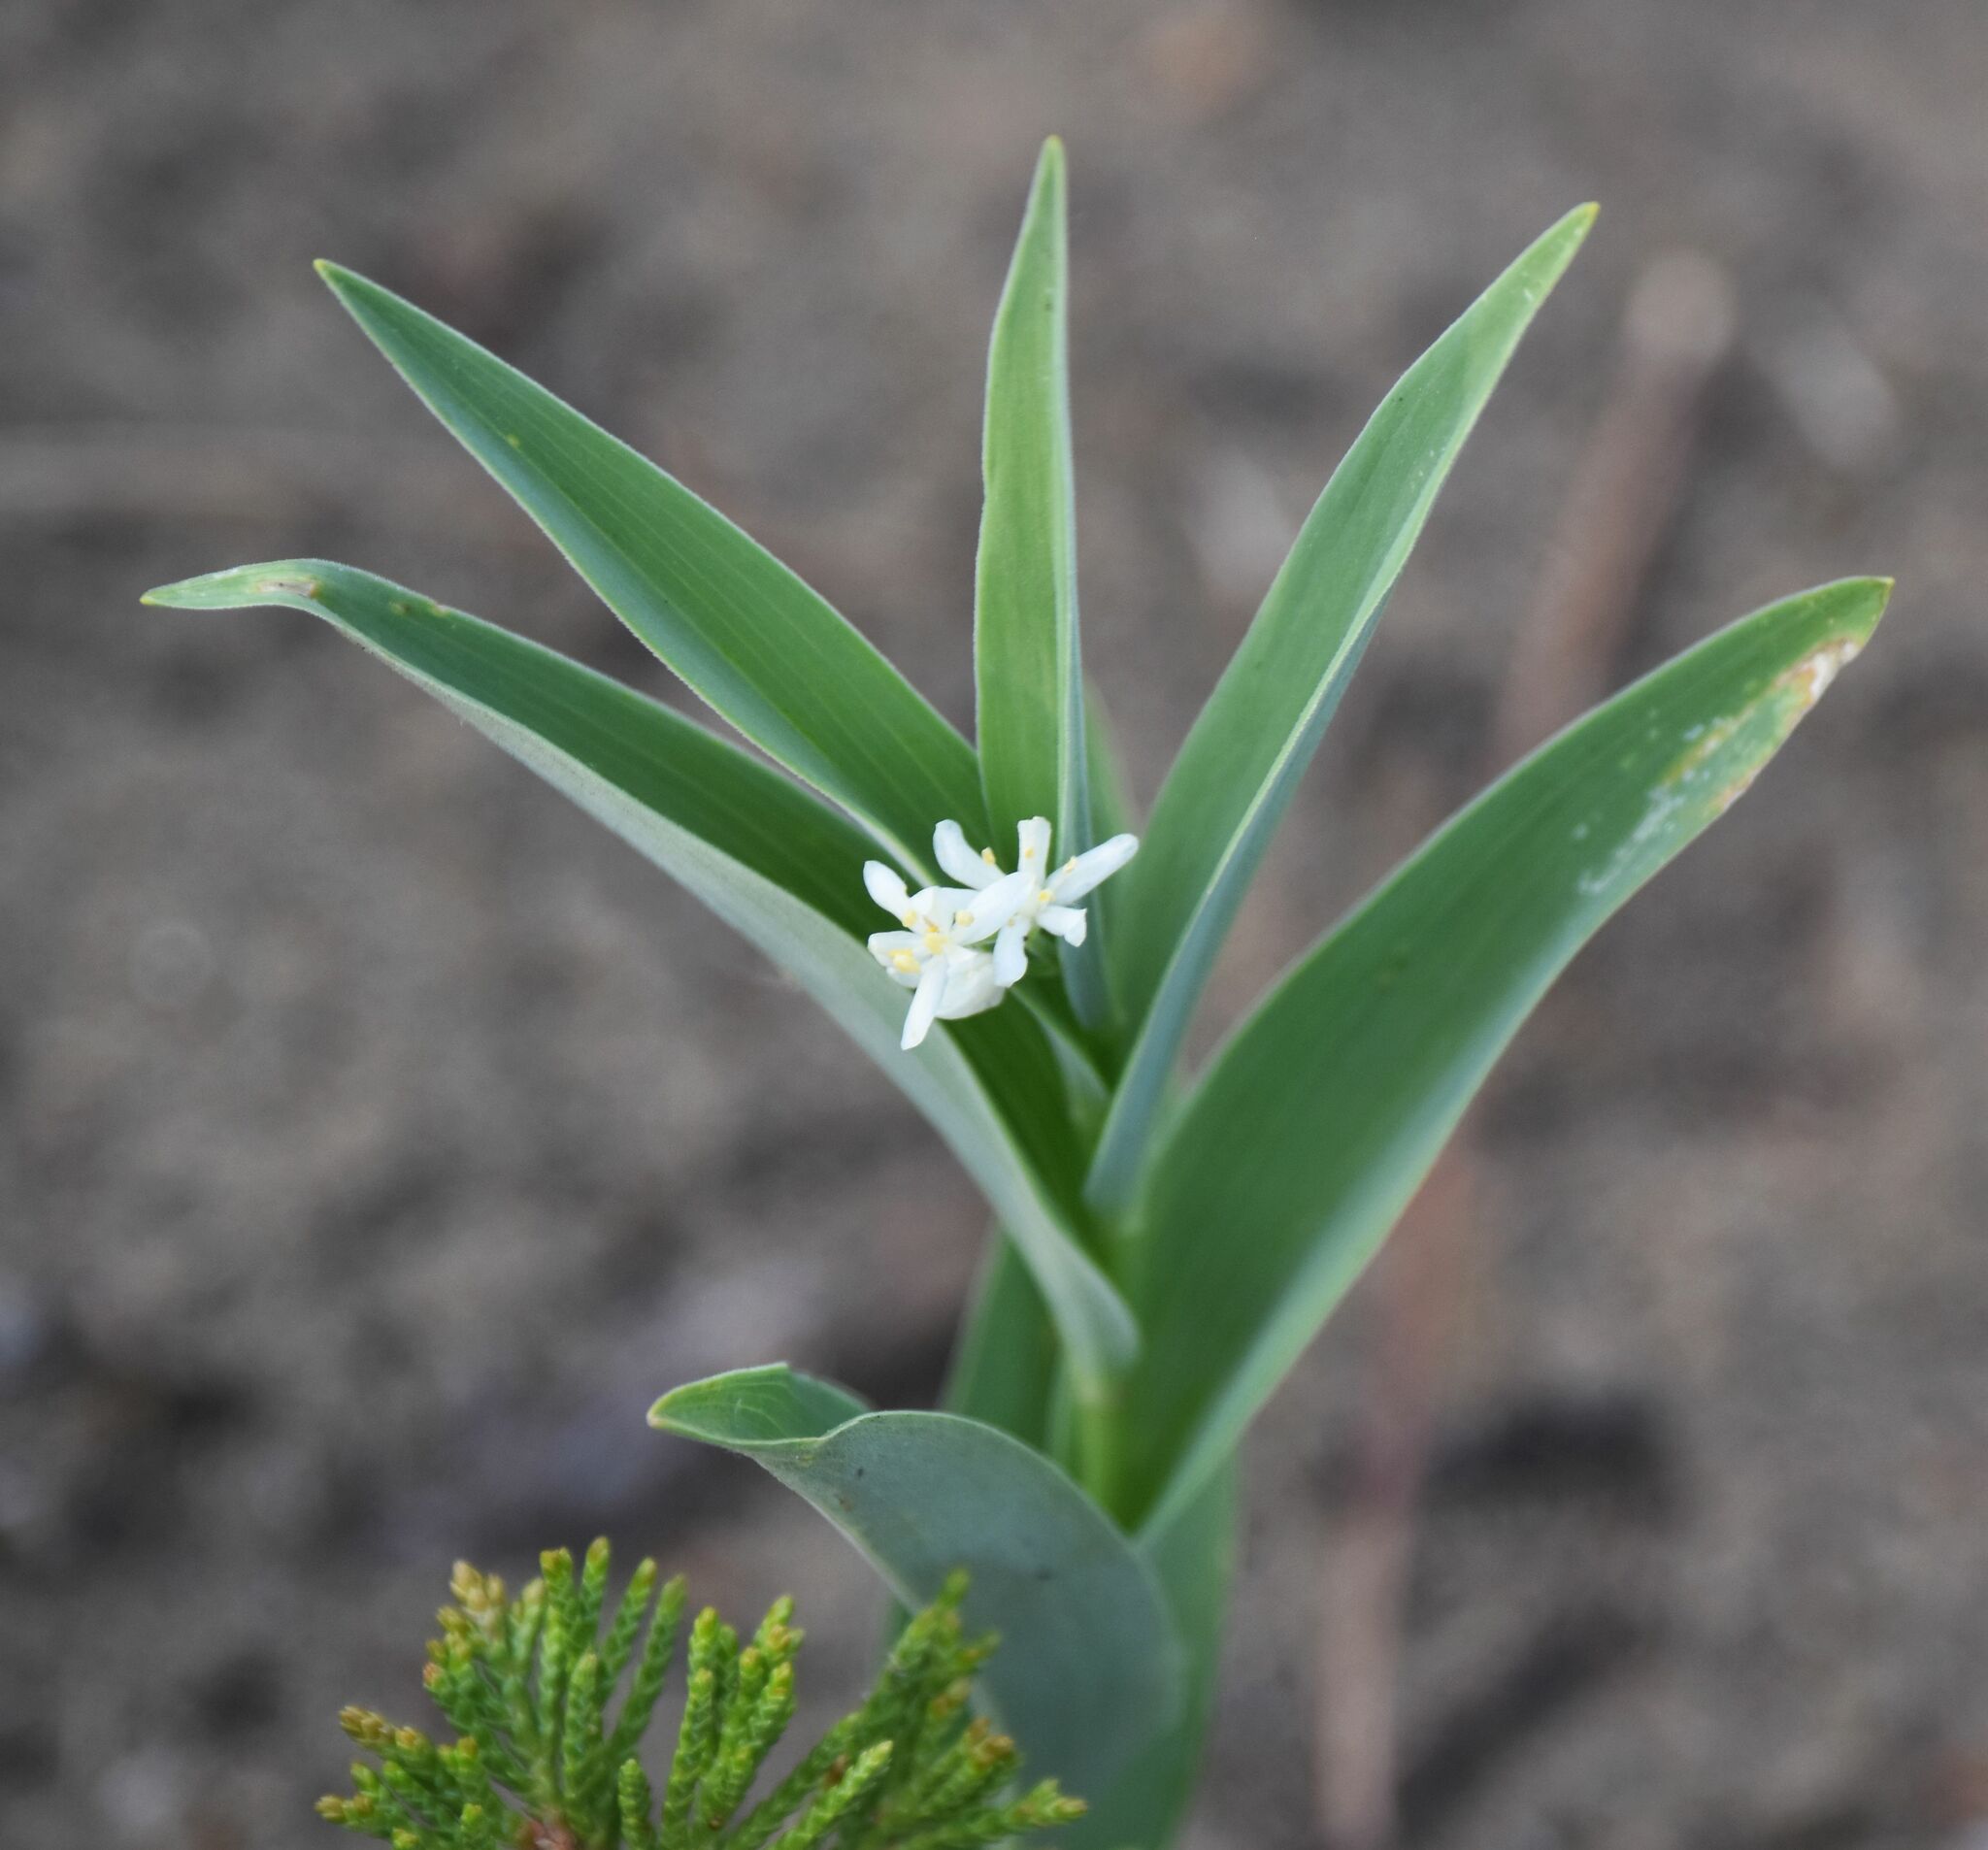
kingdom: Plantae
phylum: Tracheophyta
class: Liliopsida
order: Asparagales
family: Asparagaceae
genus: Maianthemum
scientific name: Maianthemum stellatum
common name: Little false solomon's seal
